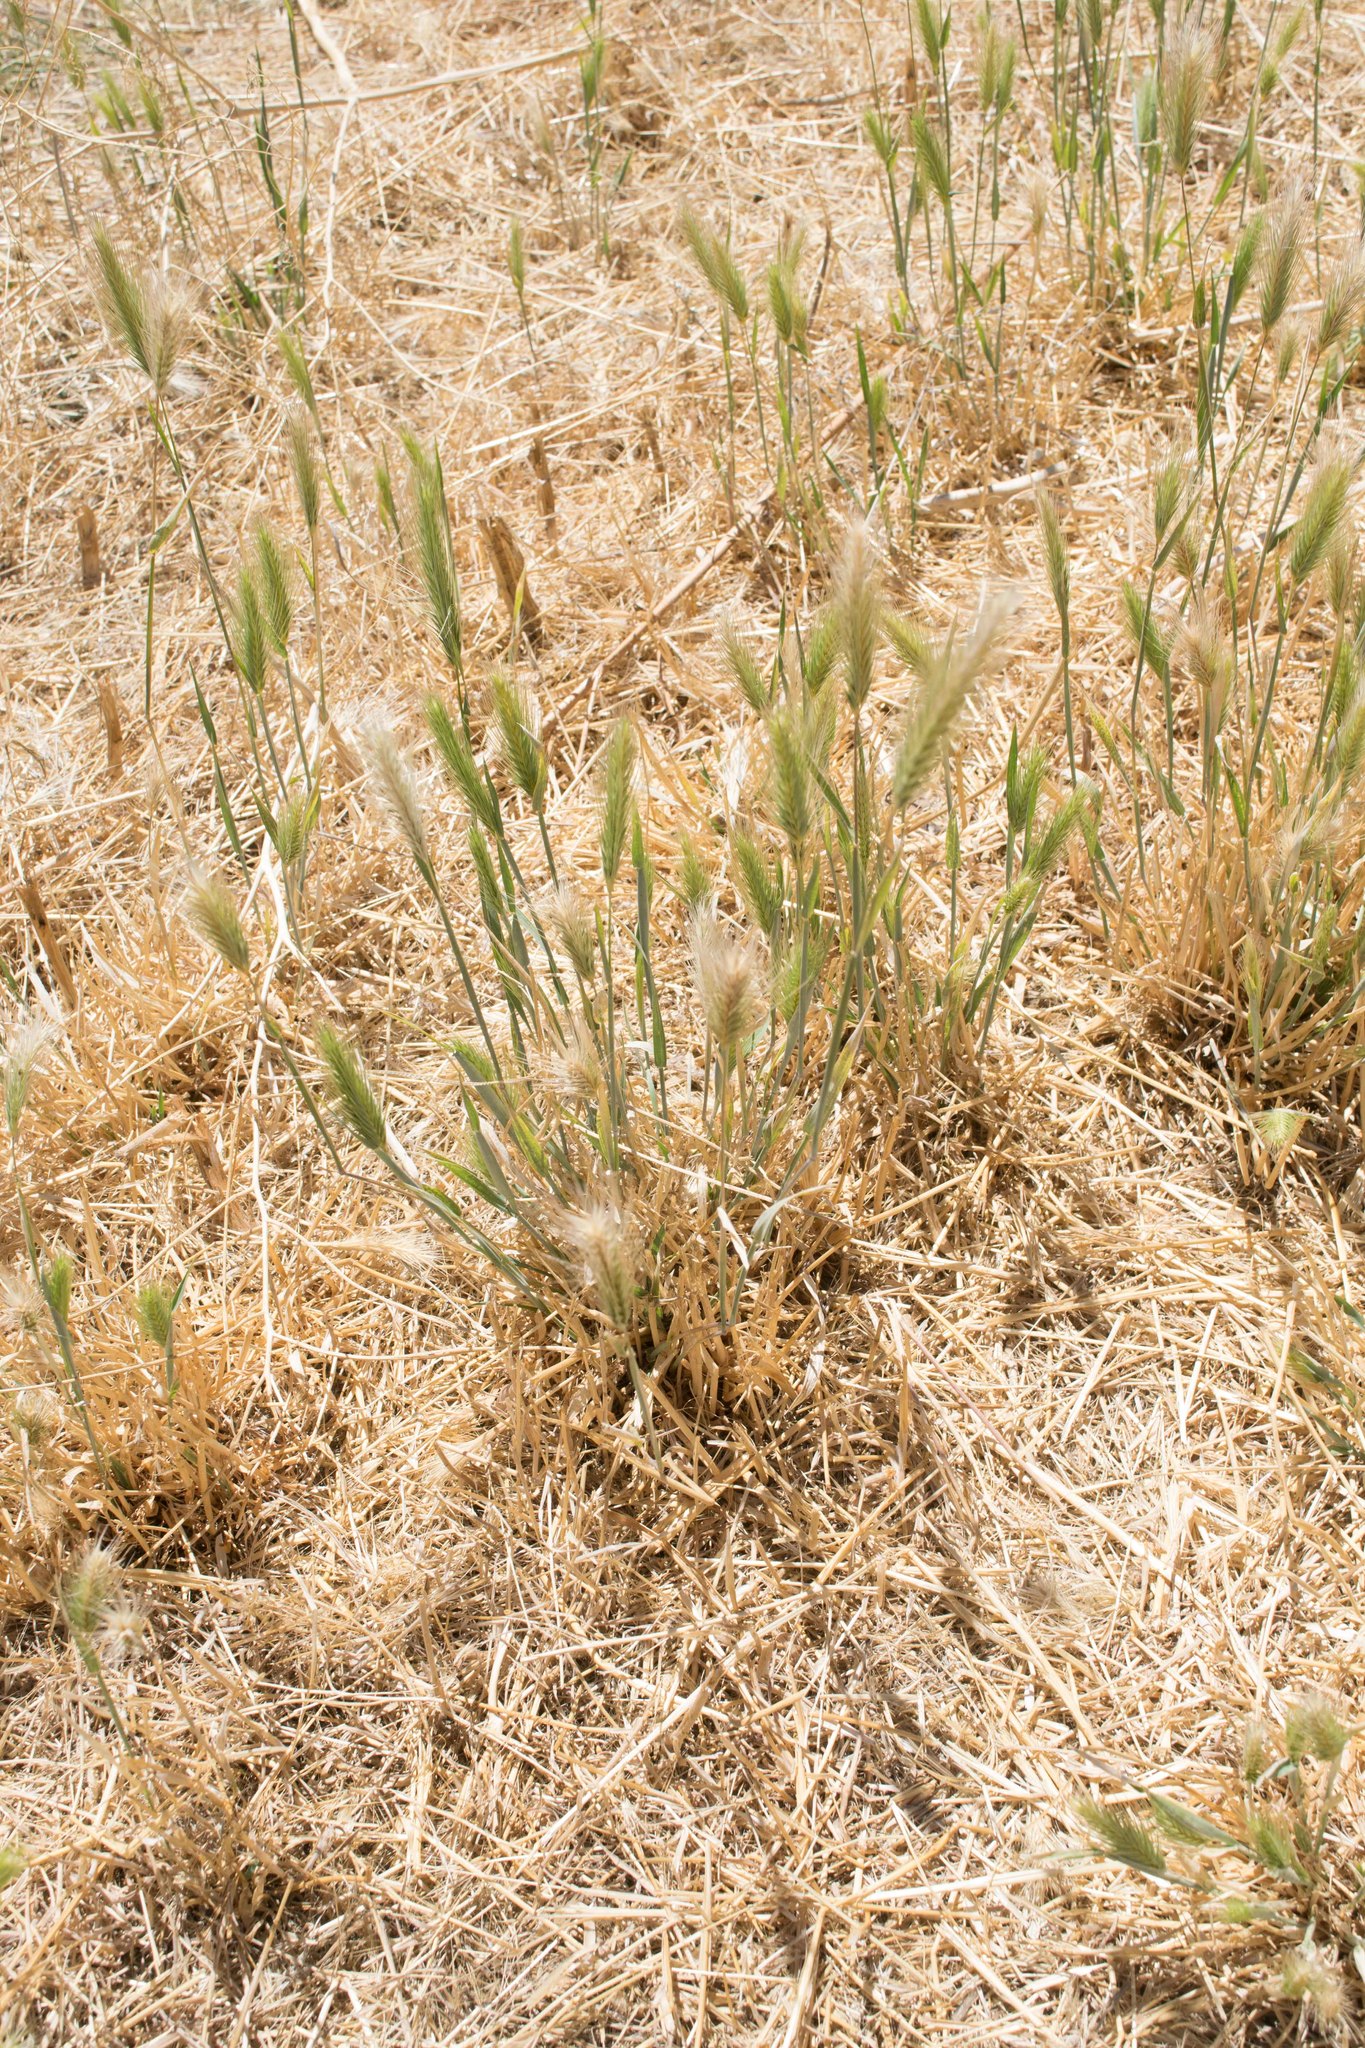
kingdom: Plantae
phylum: Tracheophyta
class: Liliopsida
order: Poales
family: Poaceae
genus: Hordeum
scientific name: Hordeum jubatum
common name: Foxtail barley
